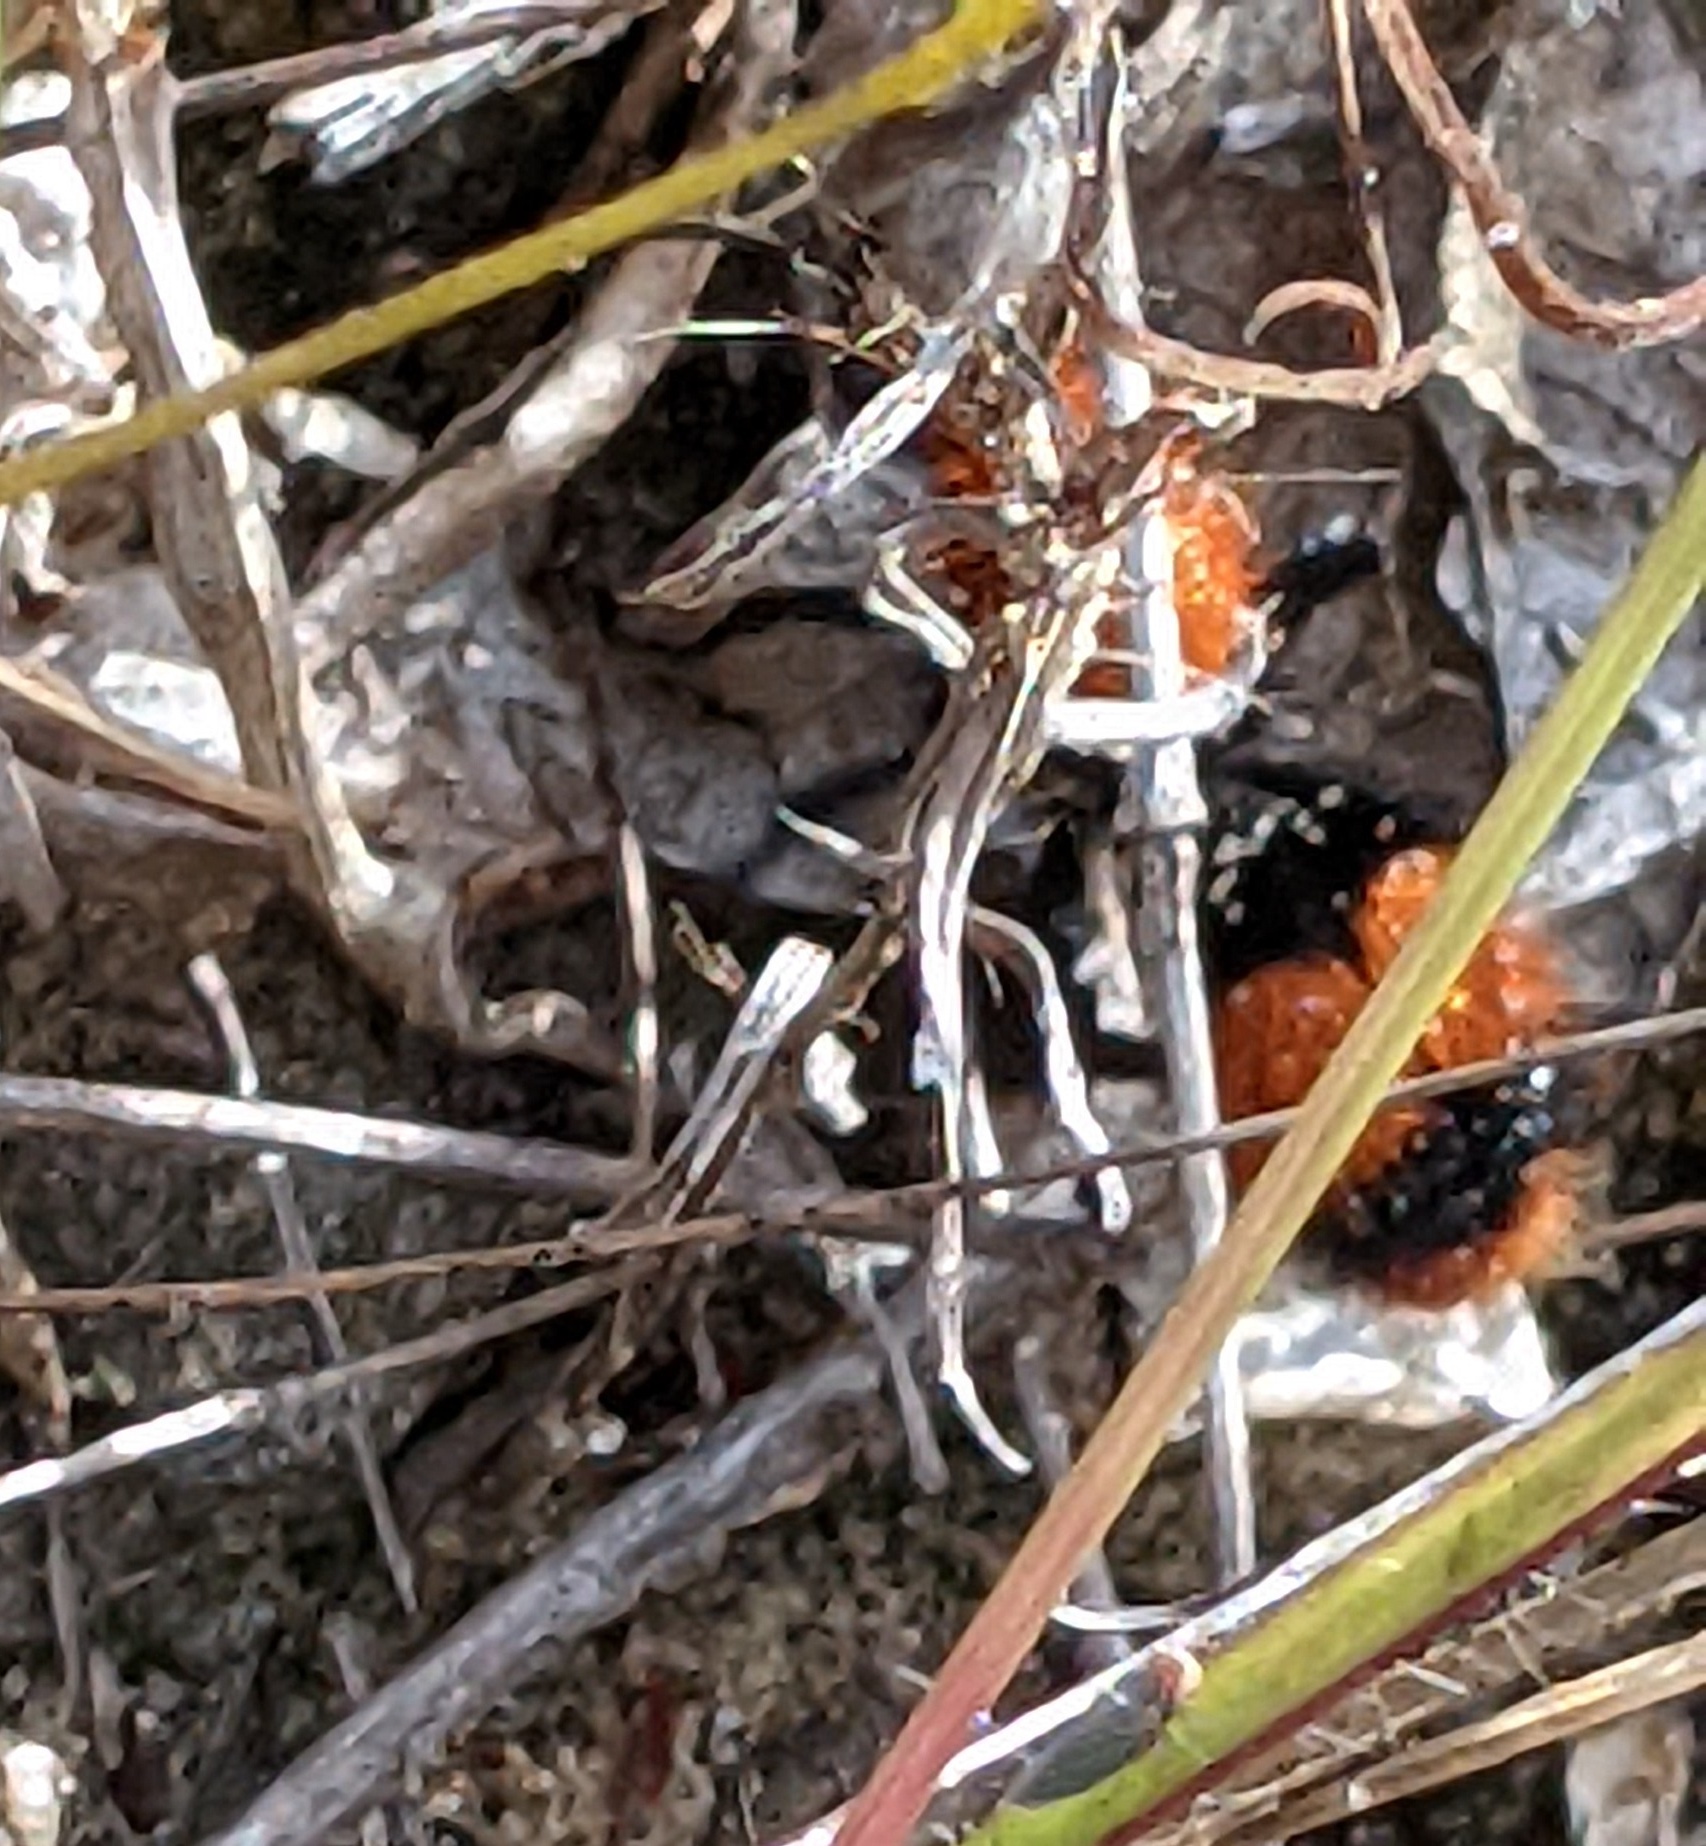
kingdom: Animalia
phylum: Arthropoda
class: Insecta
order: Hymenoptera
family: Mutillidae
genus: Dasymutilla
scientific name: Dasymutilla occidentalis
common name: Common eastern velvet ant
